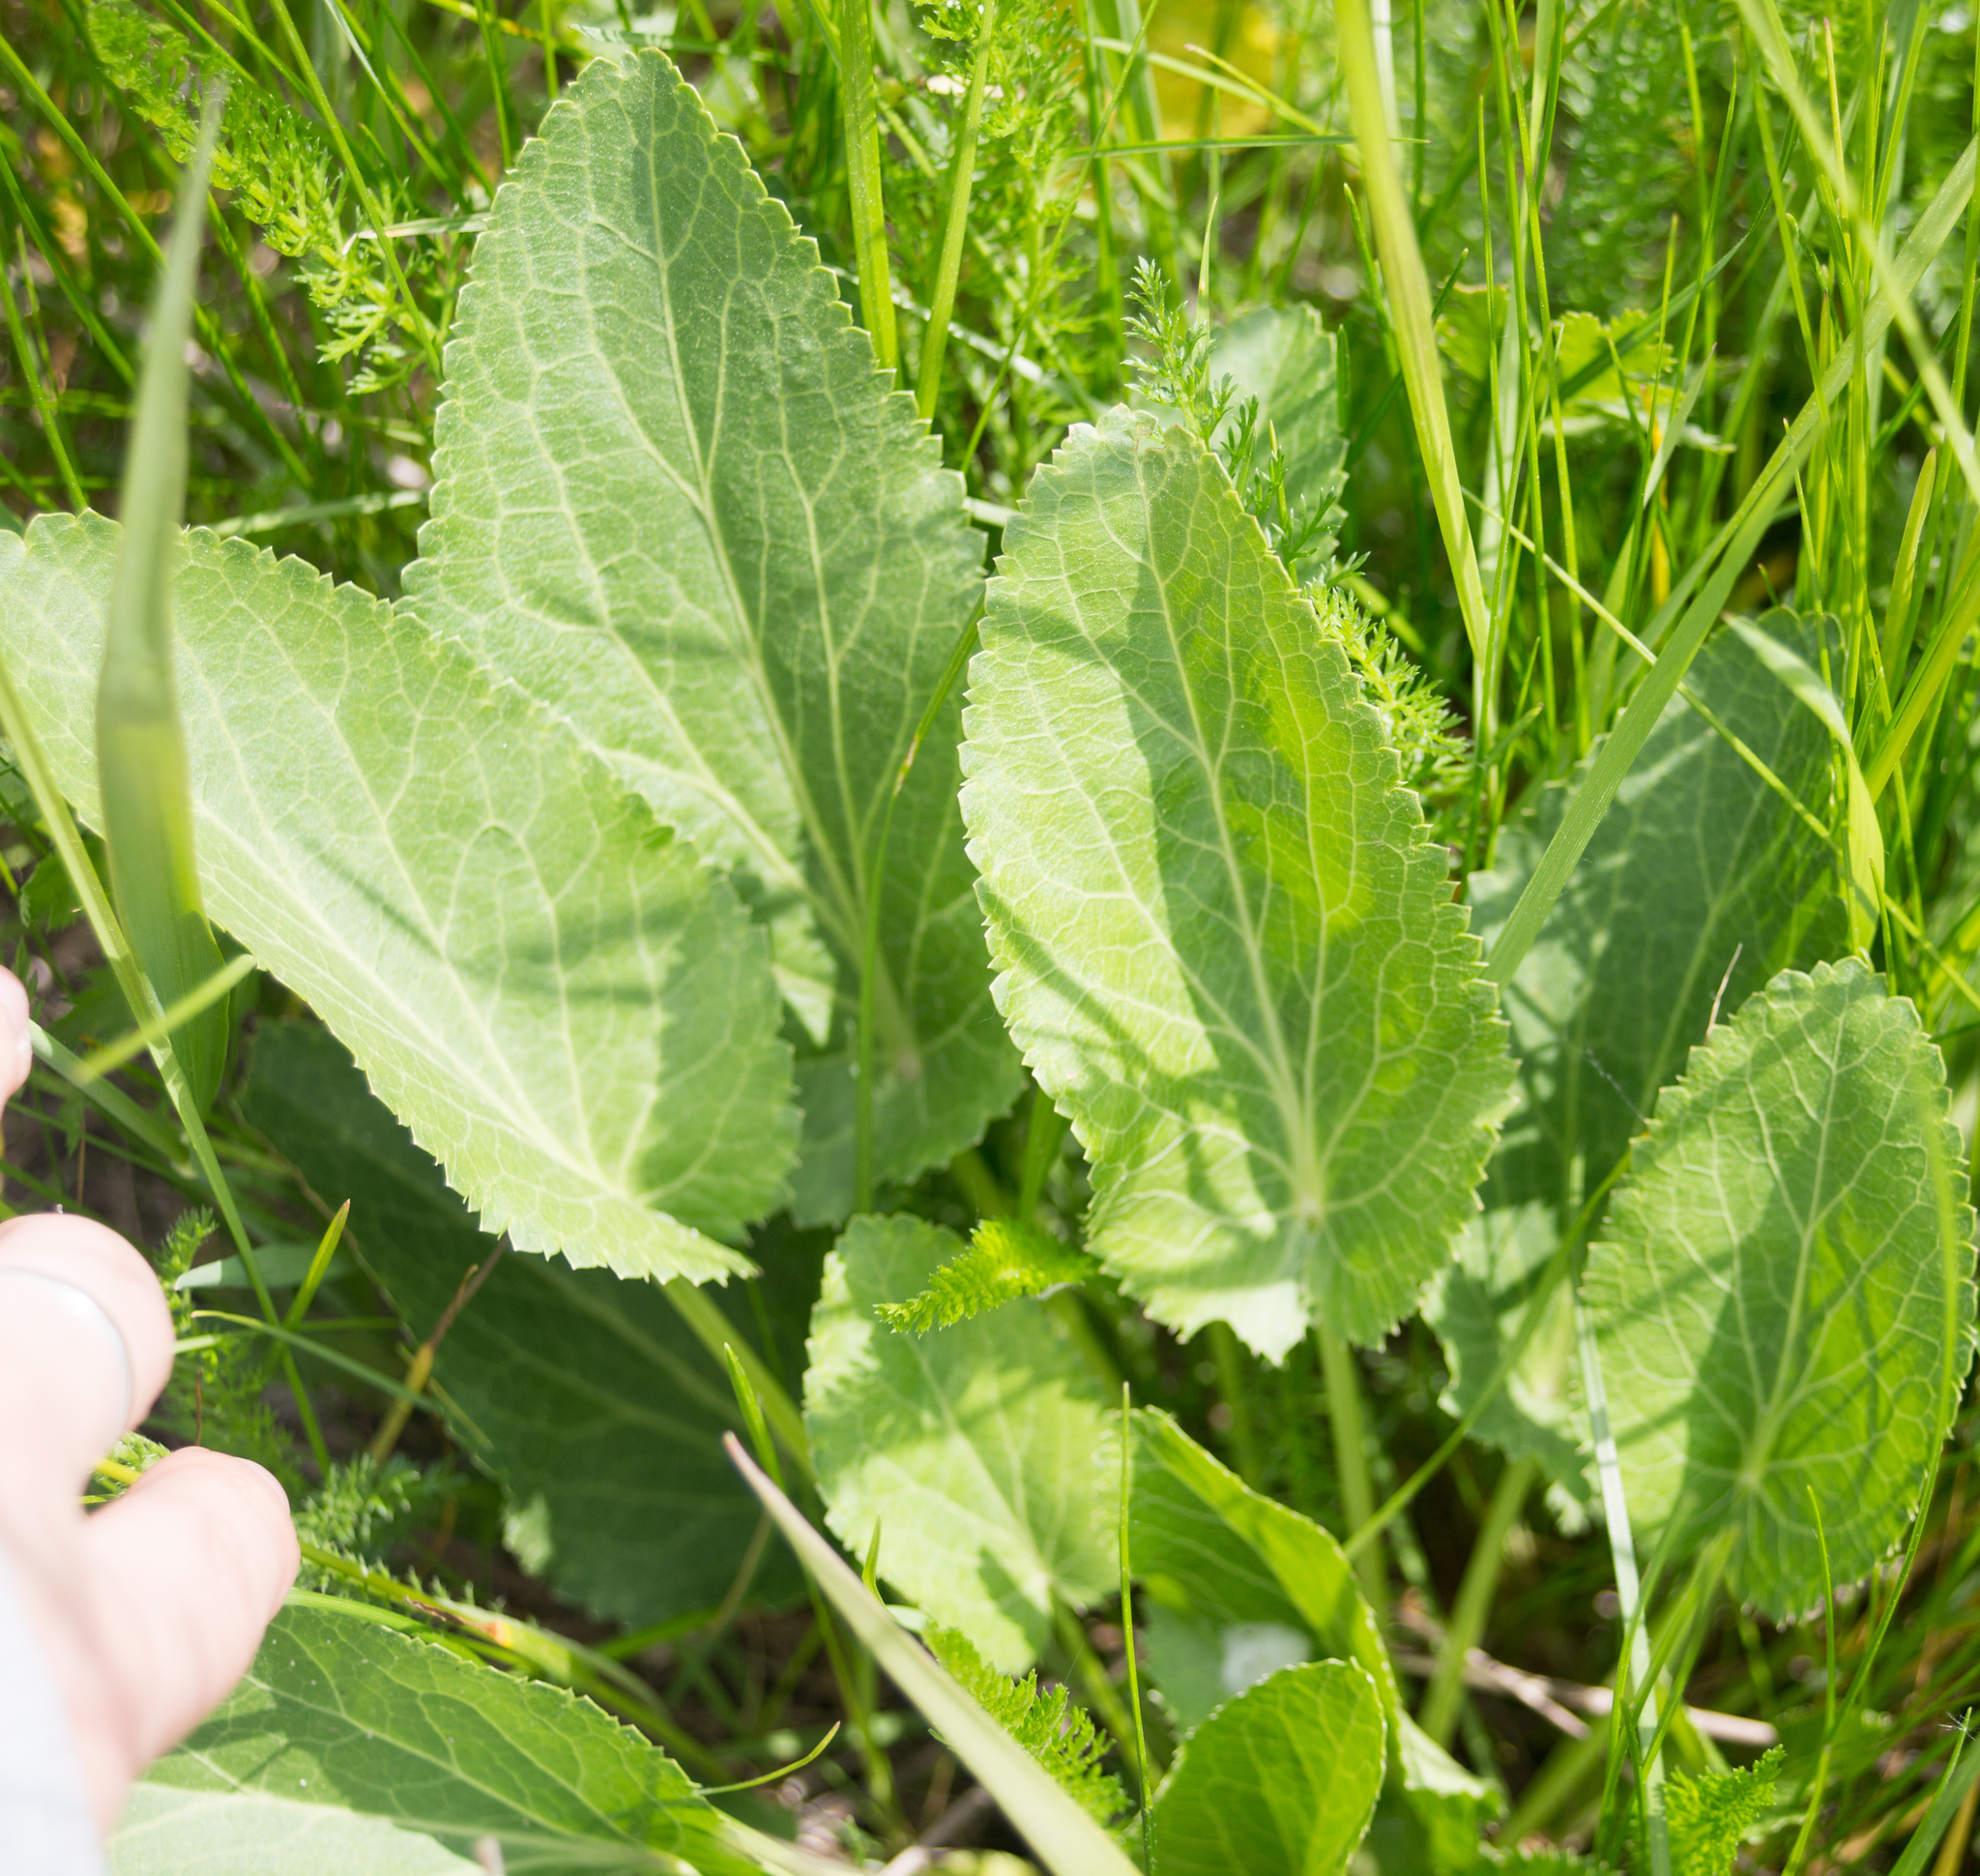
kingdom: Plantae
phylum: Tracheophyta
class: Magnoliopsida
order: Apiales
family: Apiaceae
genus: Eryngium
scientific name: Eryngium planum
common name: Blue eryngo
